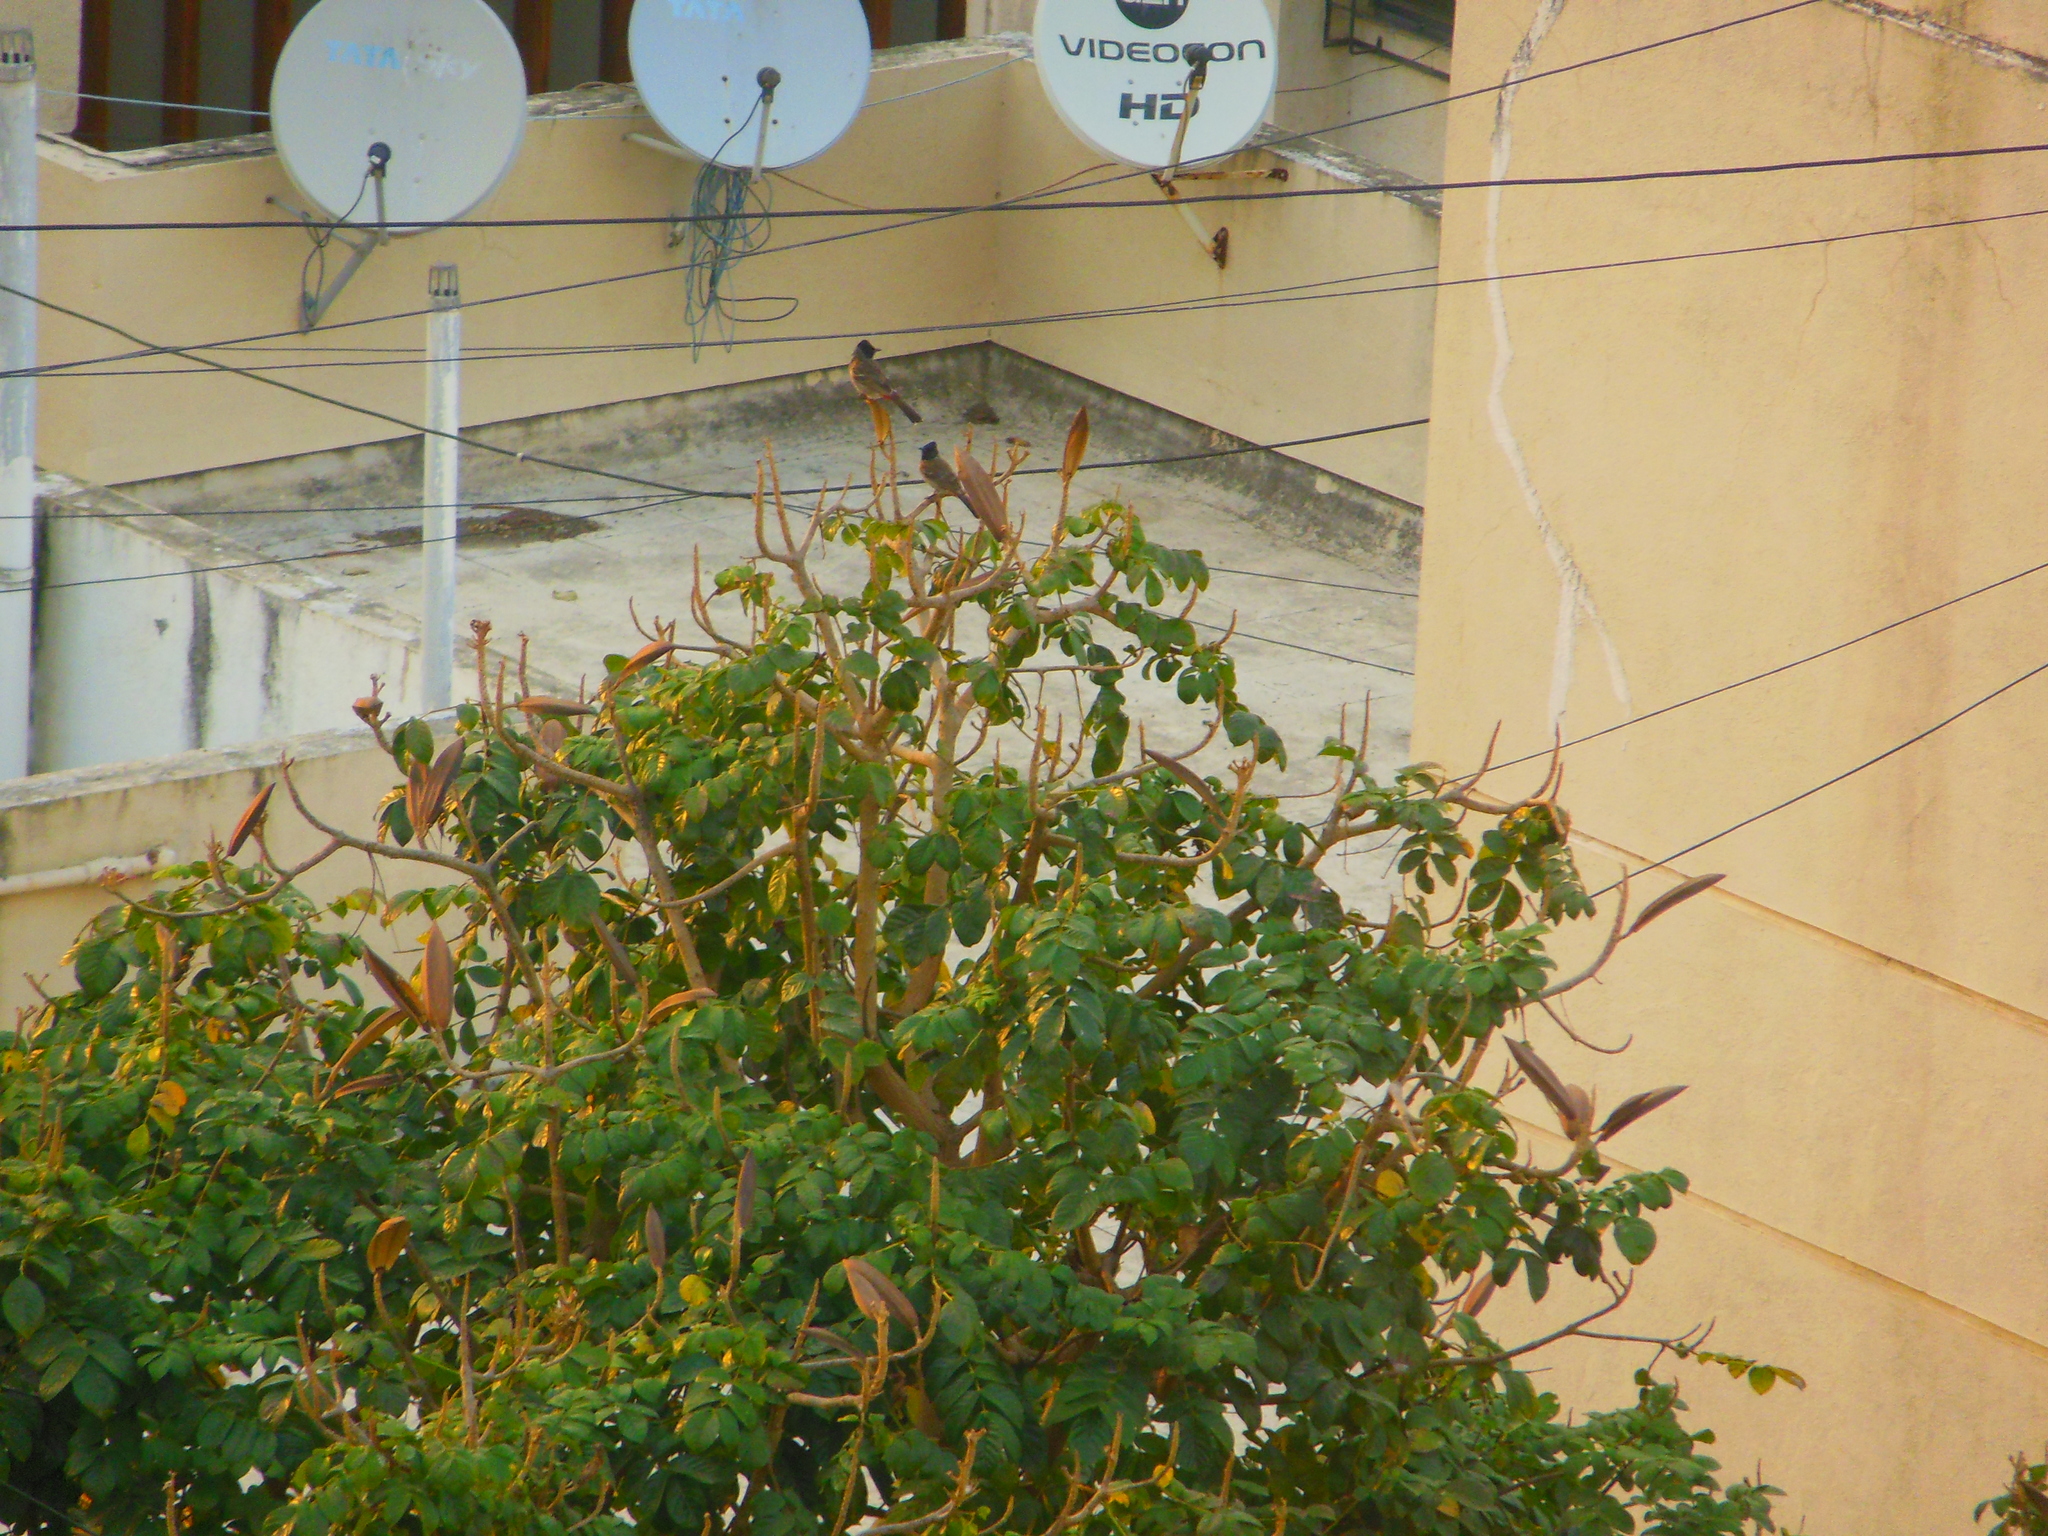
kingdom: Animalia
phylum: Chordata
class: Aves
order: Passeriformes
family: Pycnonotidae
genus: Pycnonotus
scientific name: Pycnonotus cafer
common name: Red-vented bulbul
